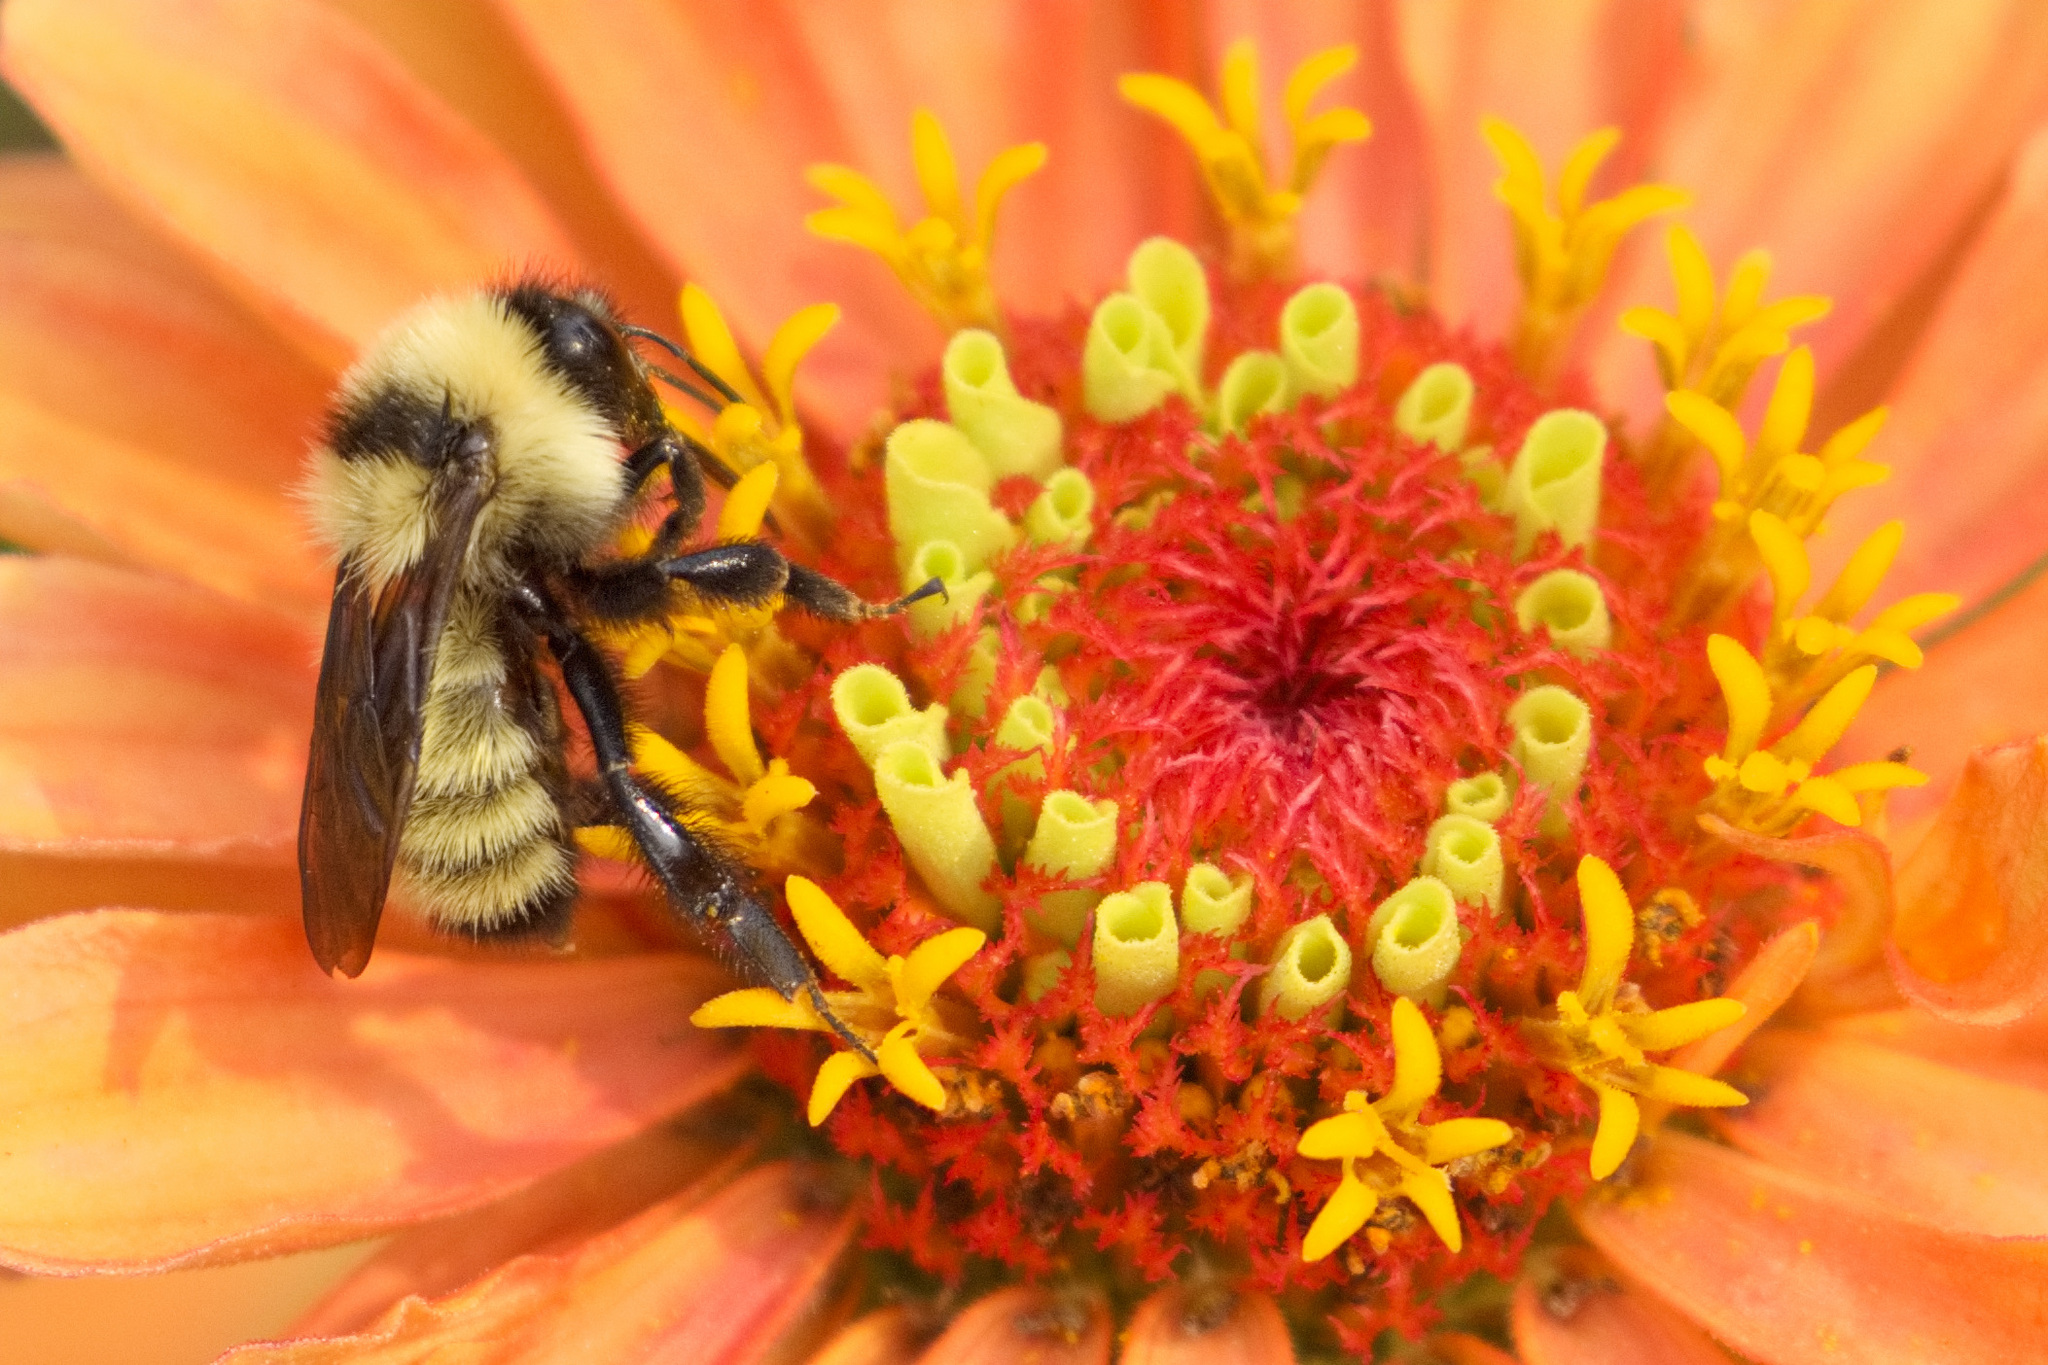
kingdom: Animalia
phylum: Arthropoda
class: Insecta
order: Hymenoptera
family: Apidae
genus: Bombus
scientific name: Bombus fervidus
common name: Yellow bumble bee
